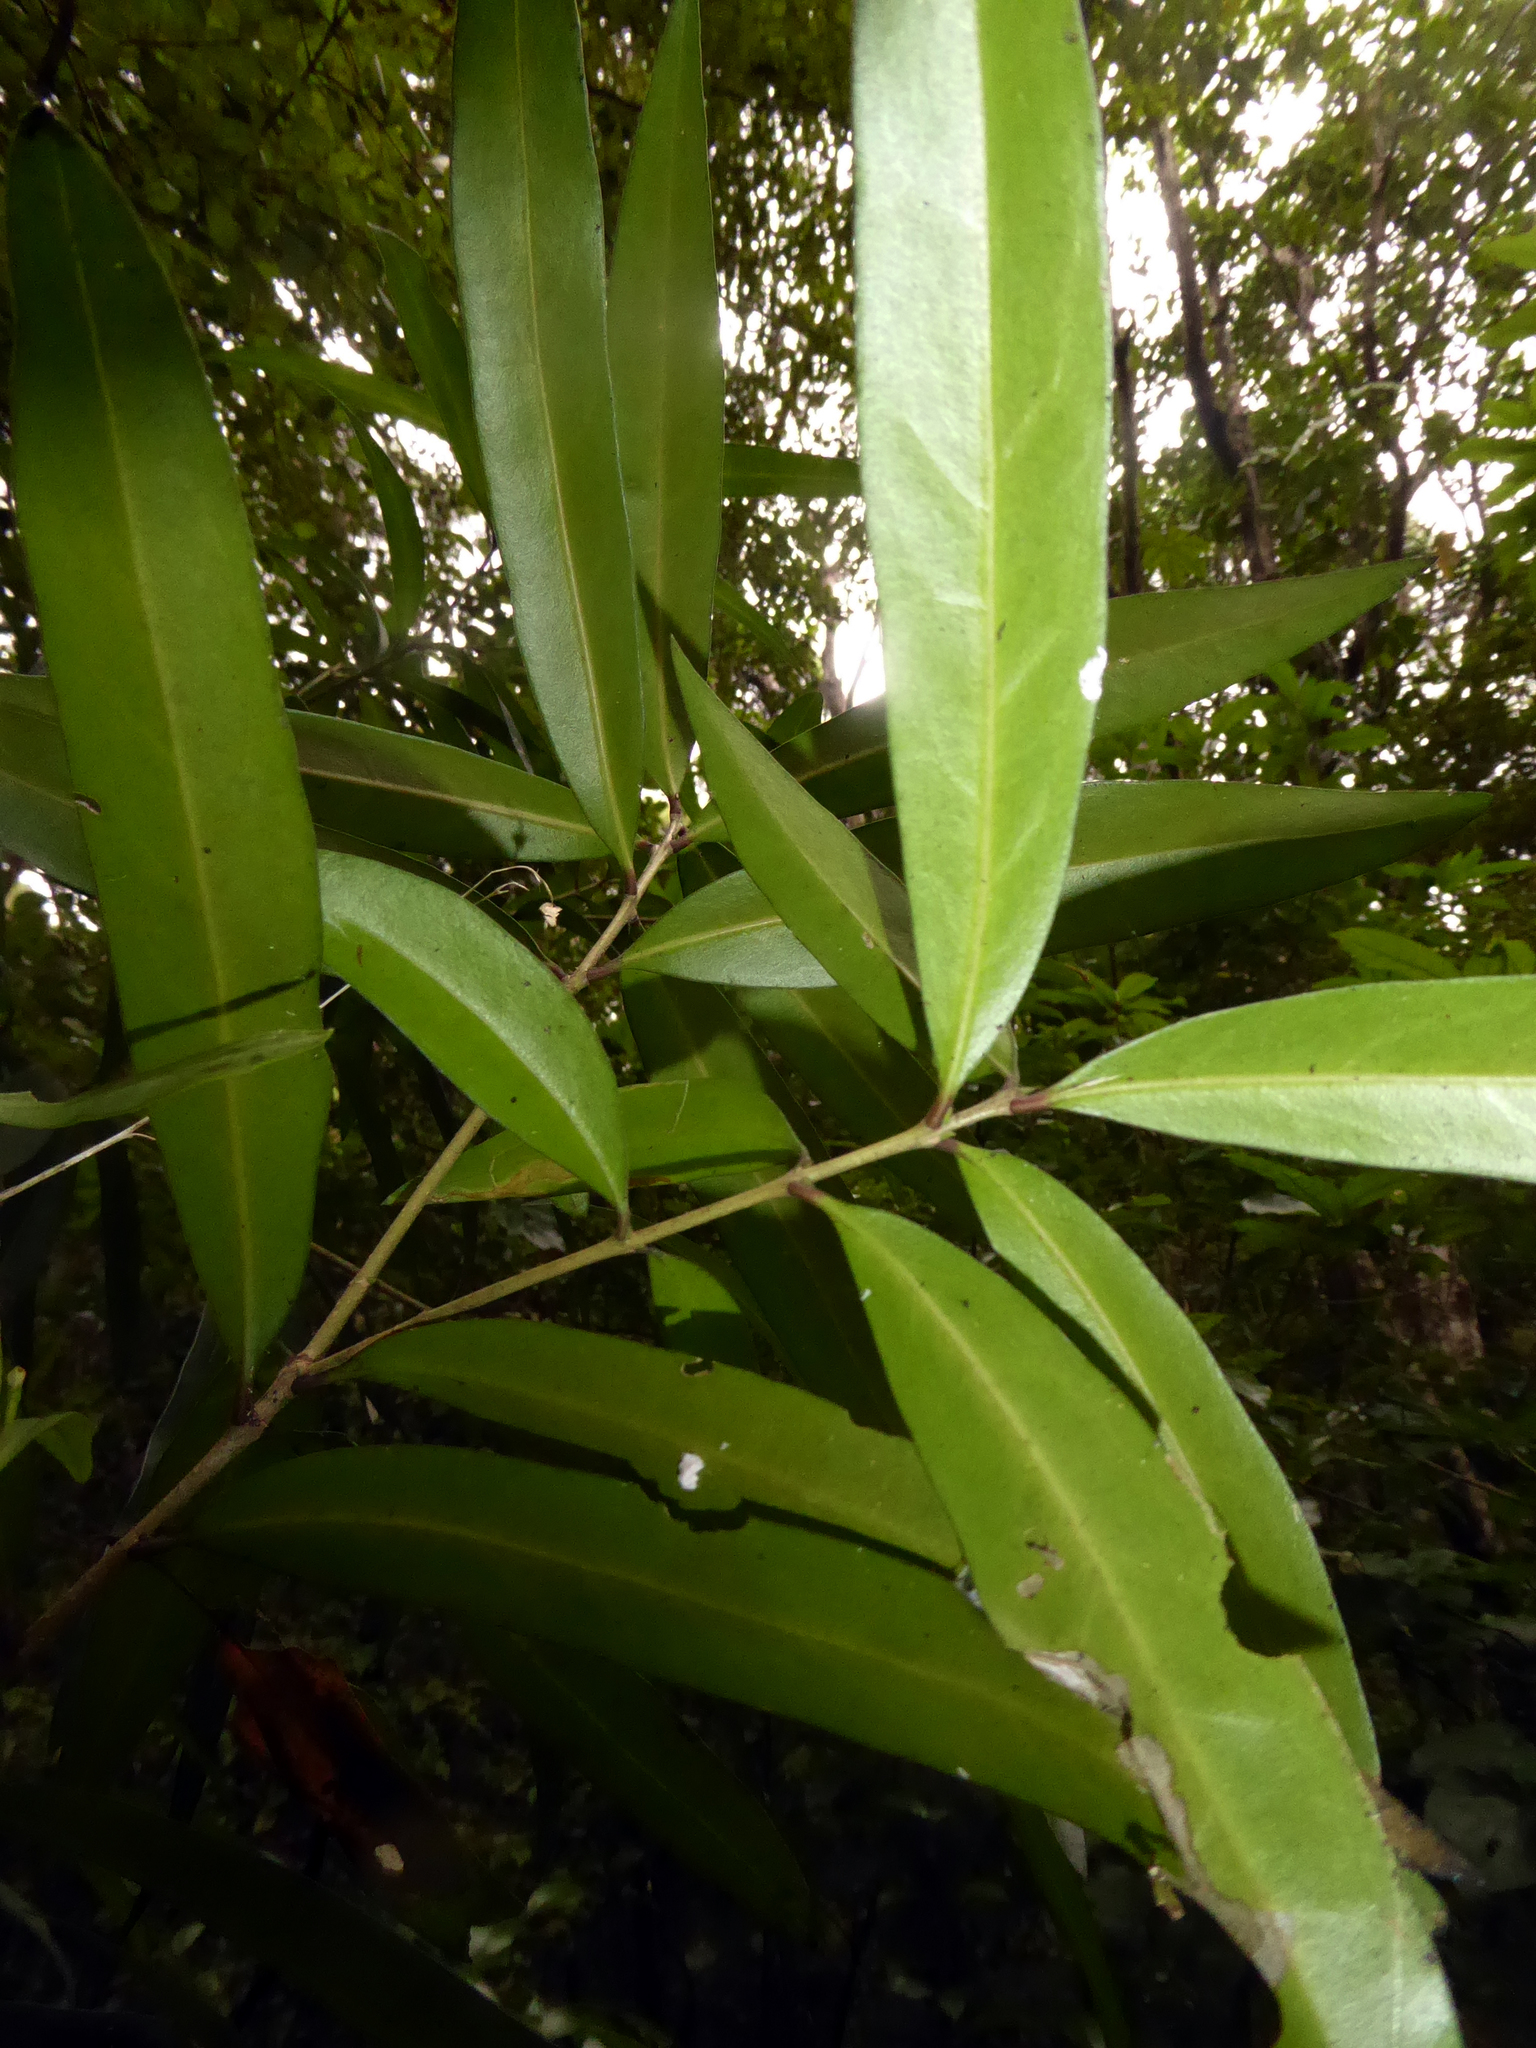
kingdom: Plantae
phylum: Tracheophyta
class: Magnoliopsida
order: Lamiales
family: Oleaceae
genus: Nestegis
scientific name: Nestegis lanceolata
